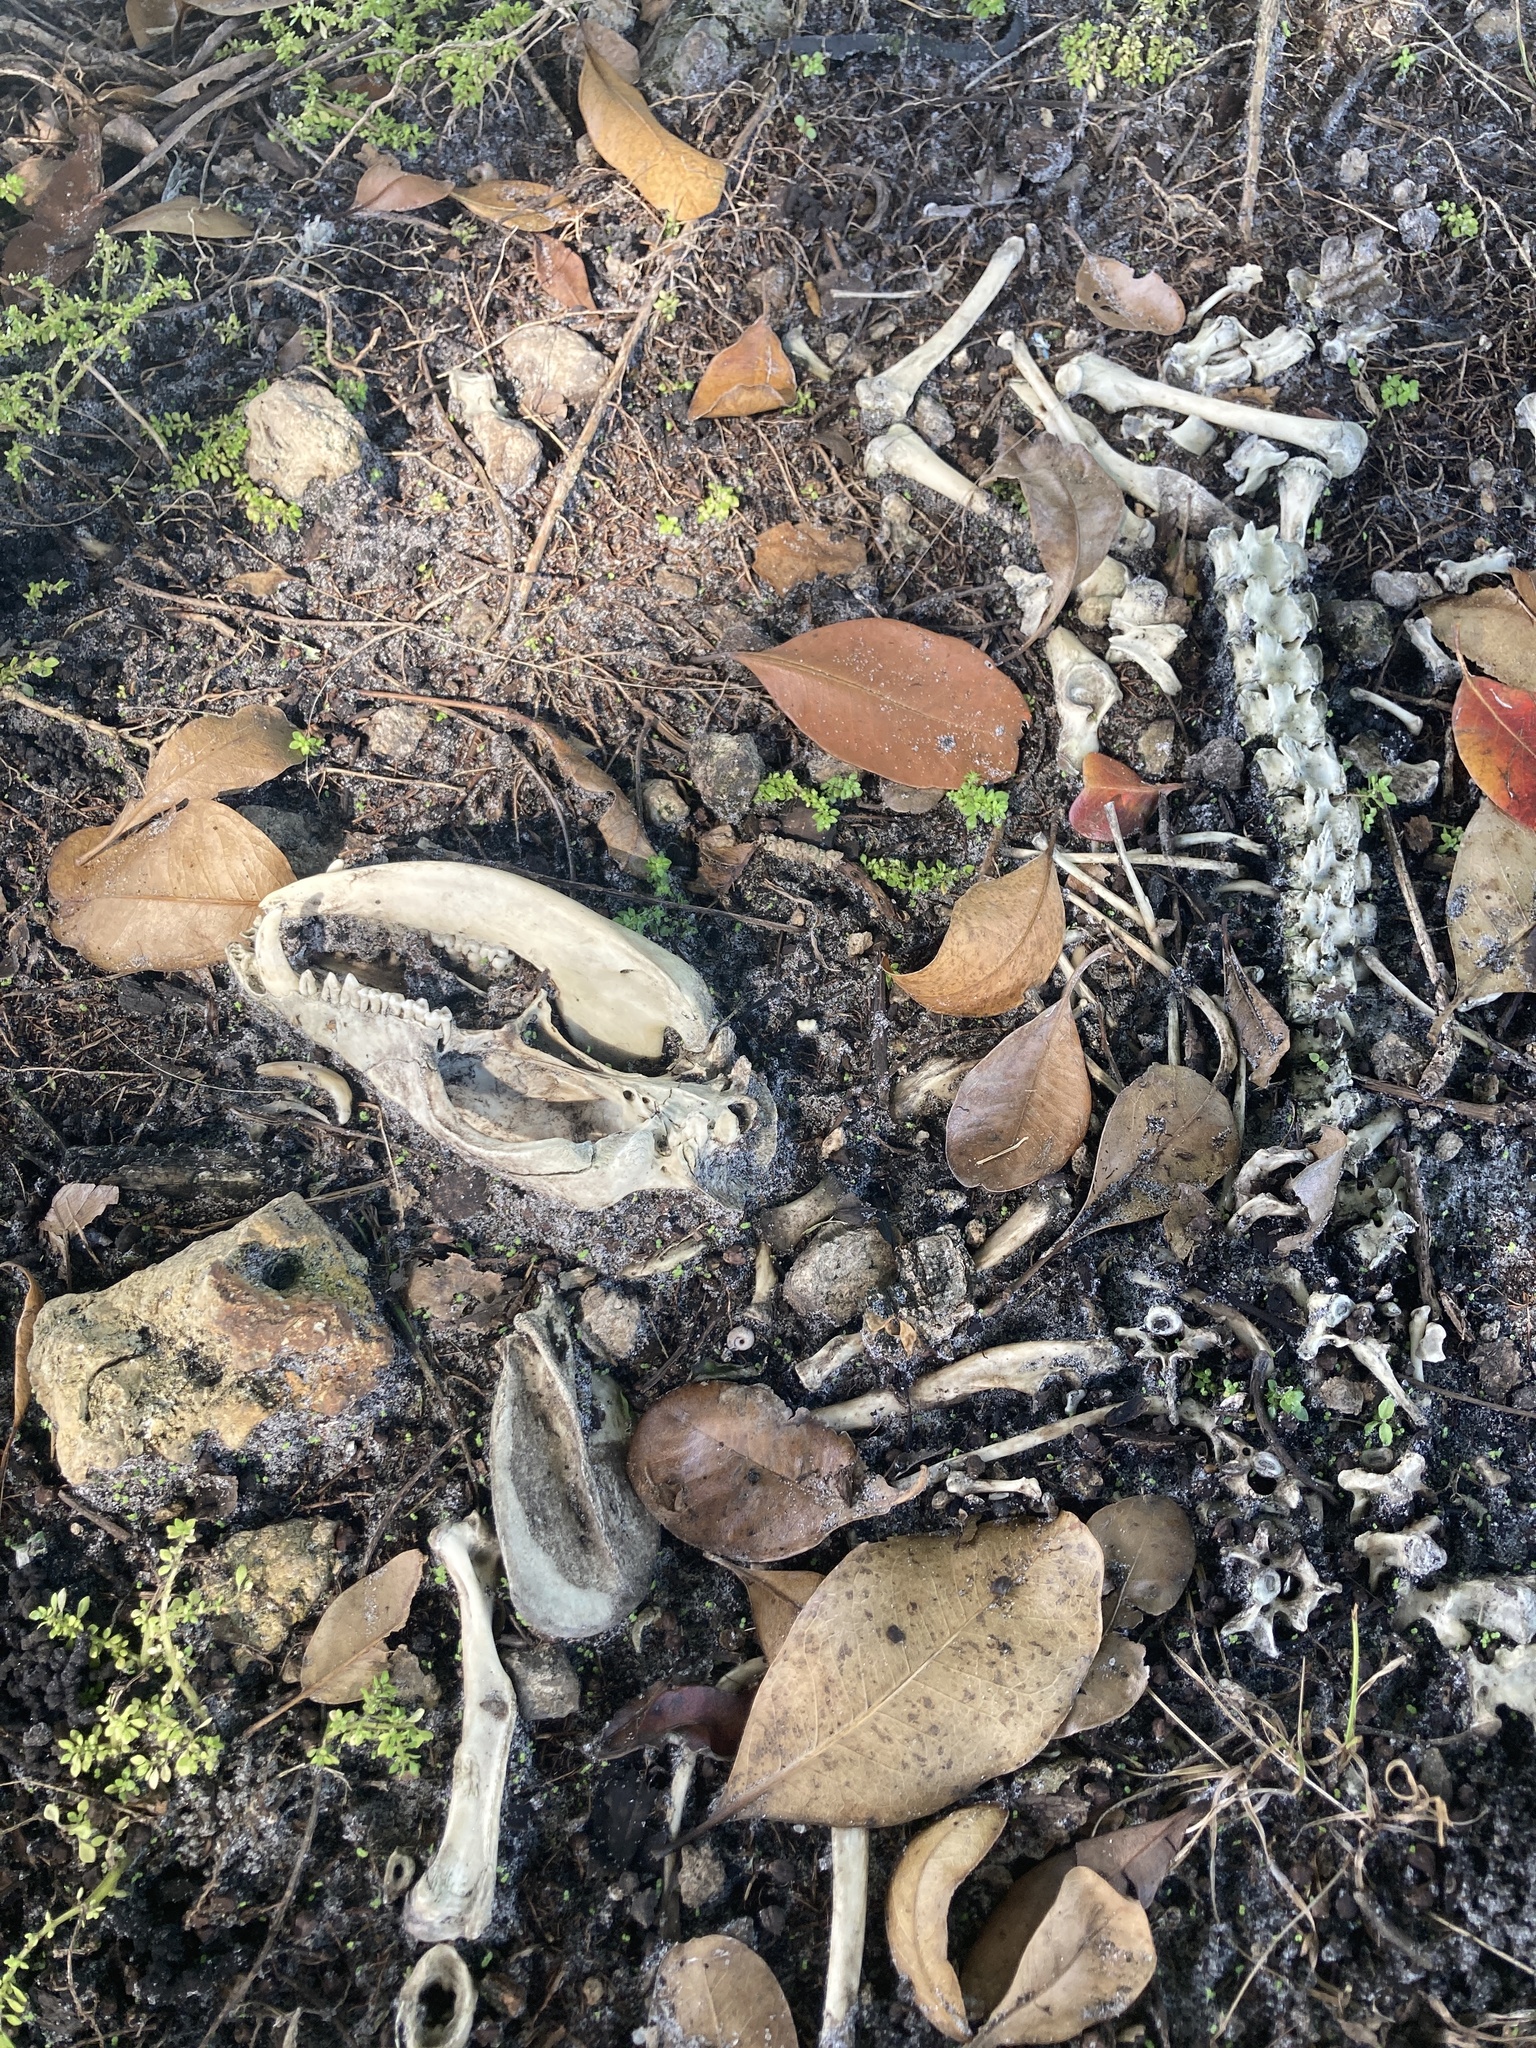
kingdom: Animalia
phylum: Chordata
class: Mammalia
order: Didelphimorphia
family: Didelphidae
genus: Didelphis
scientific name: Didelphis virginiana
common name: Virginia opossum
